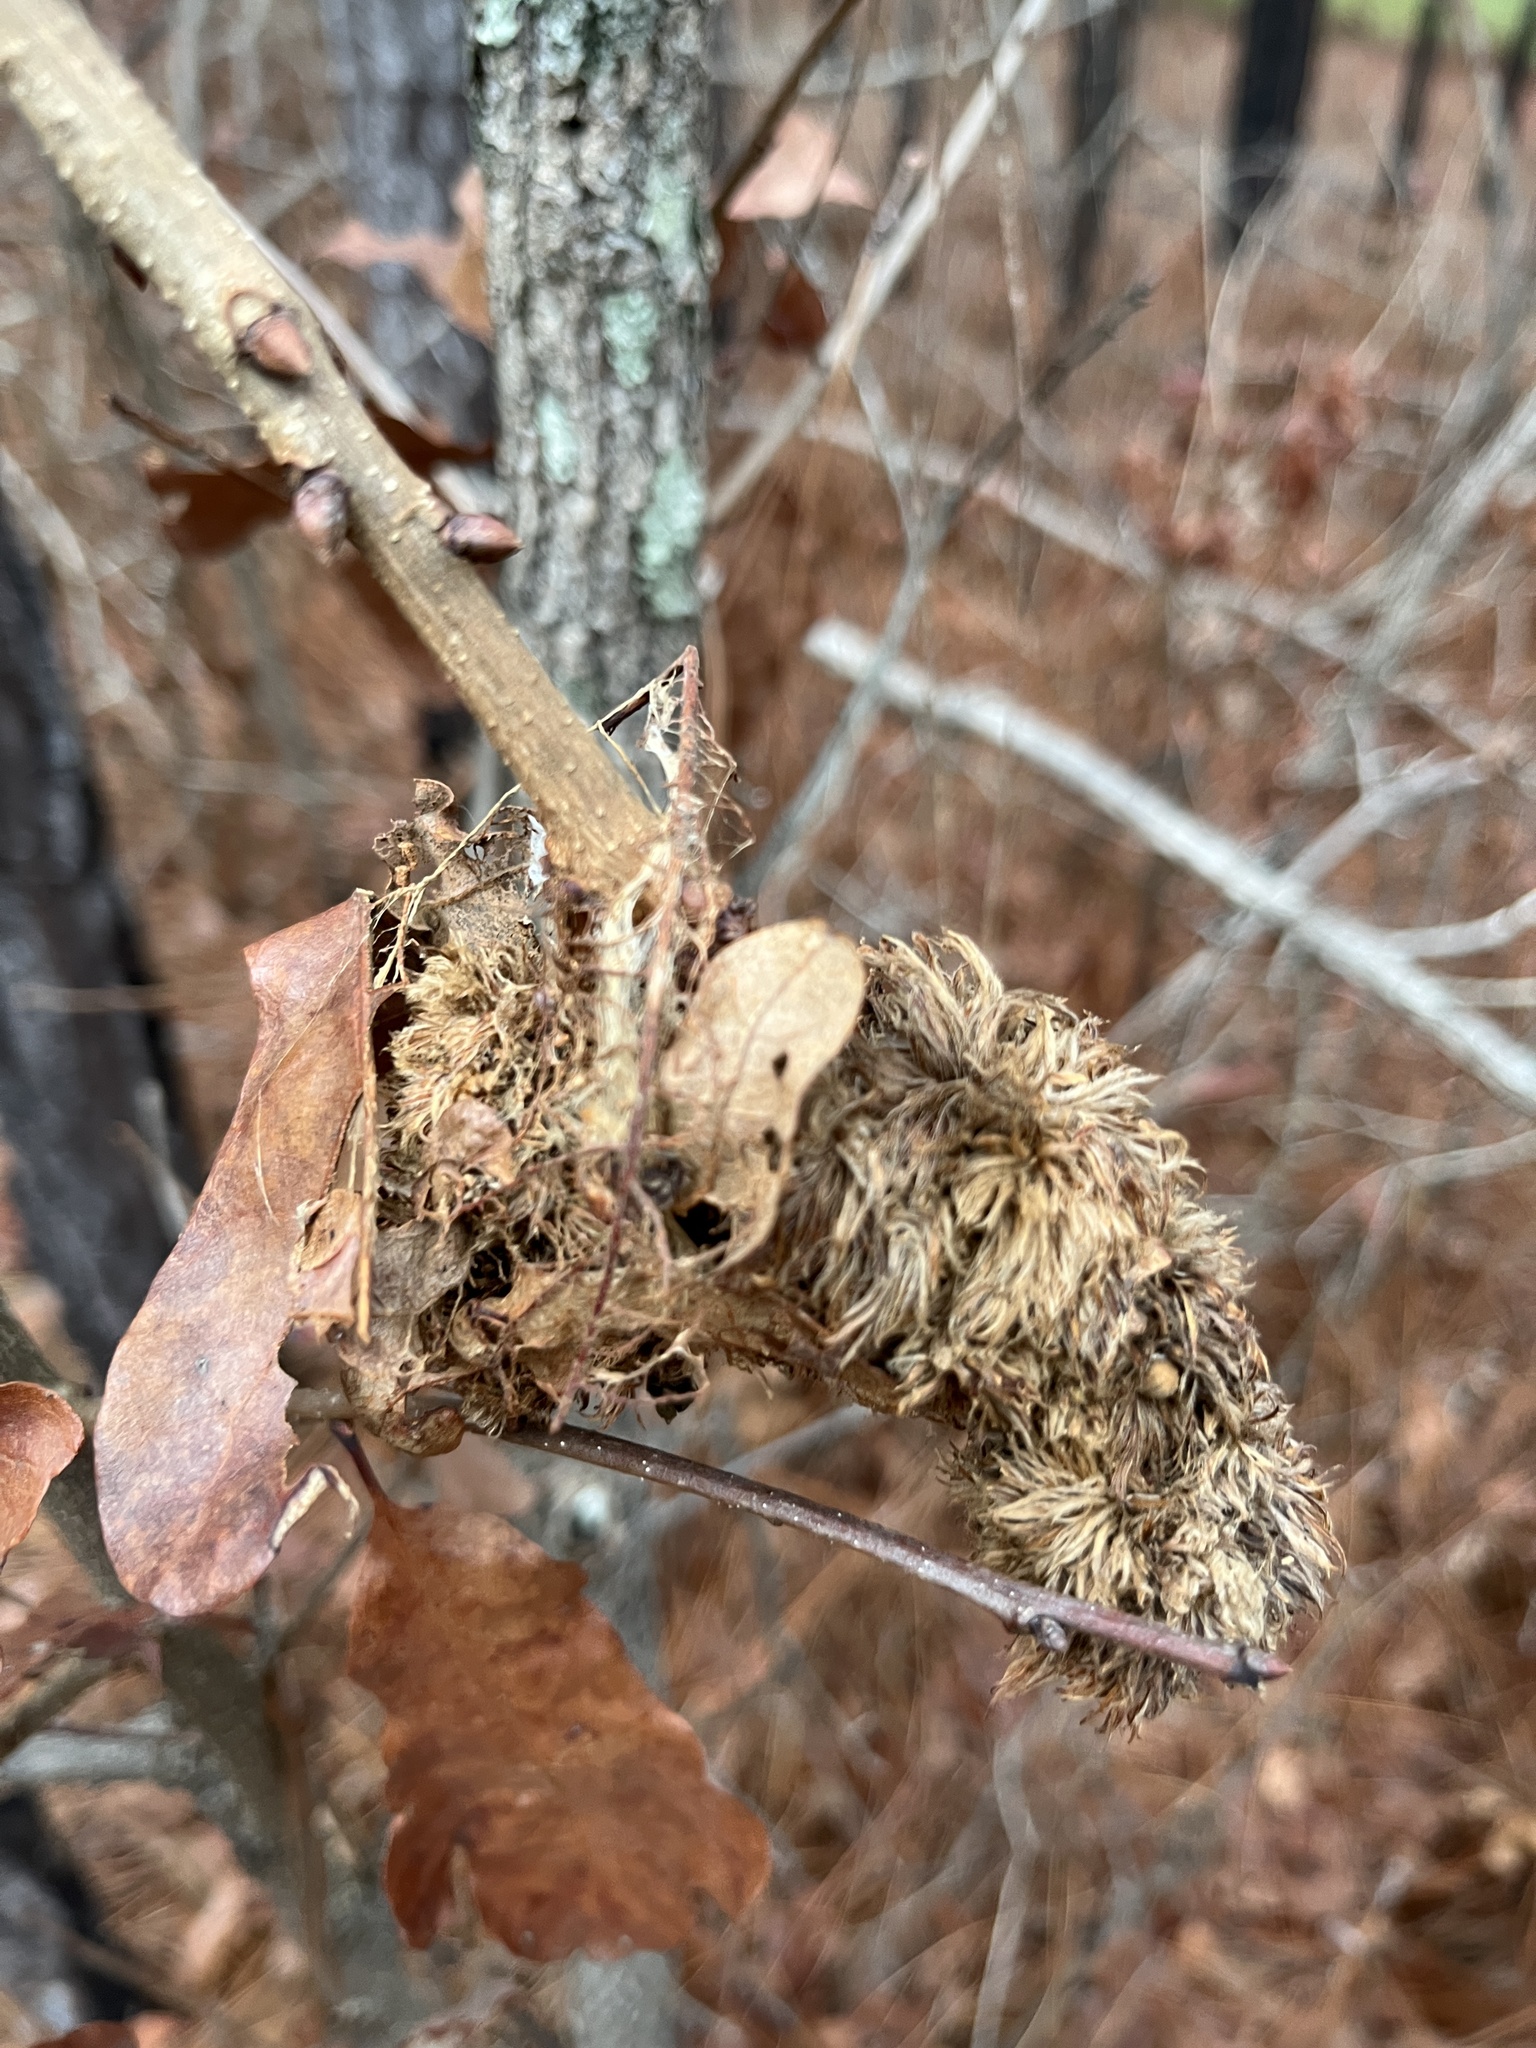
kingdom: Animalia
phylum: Arthropoda
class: Insecta
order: Hymenoptera
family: Cynipidae
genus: Andricus
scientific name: Andricus
